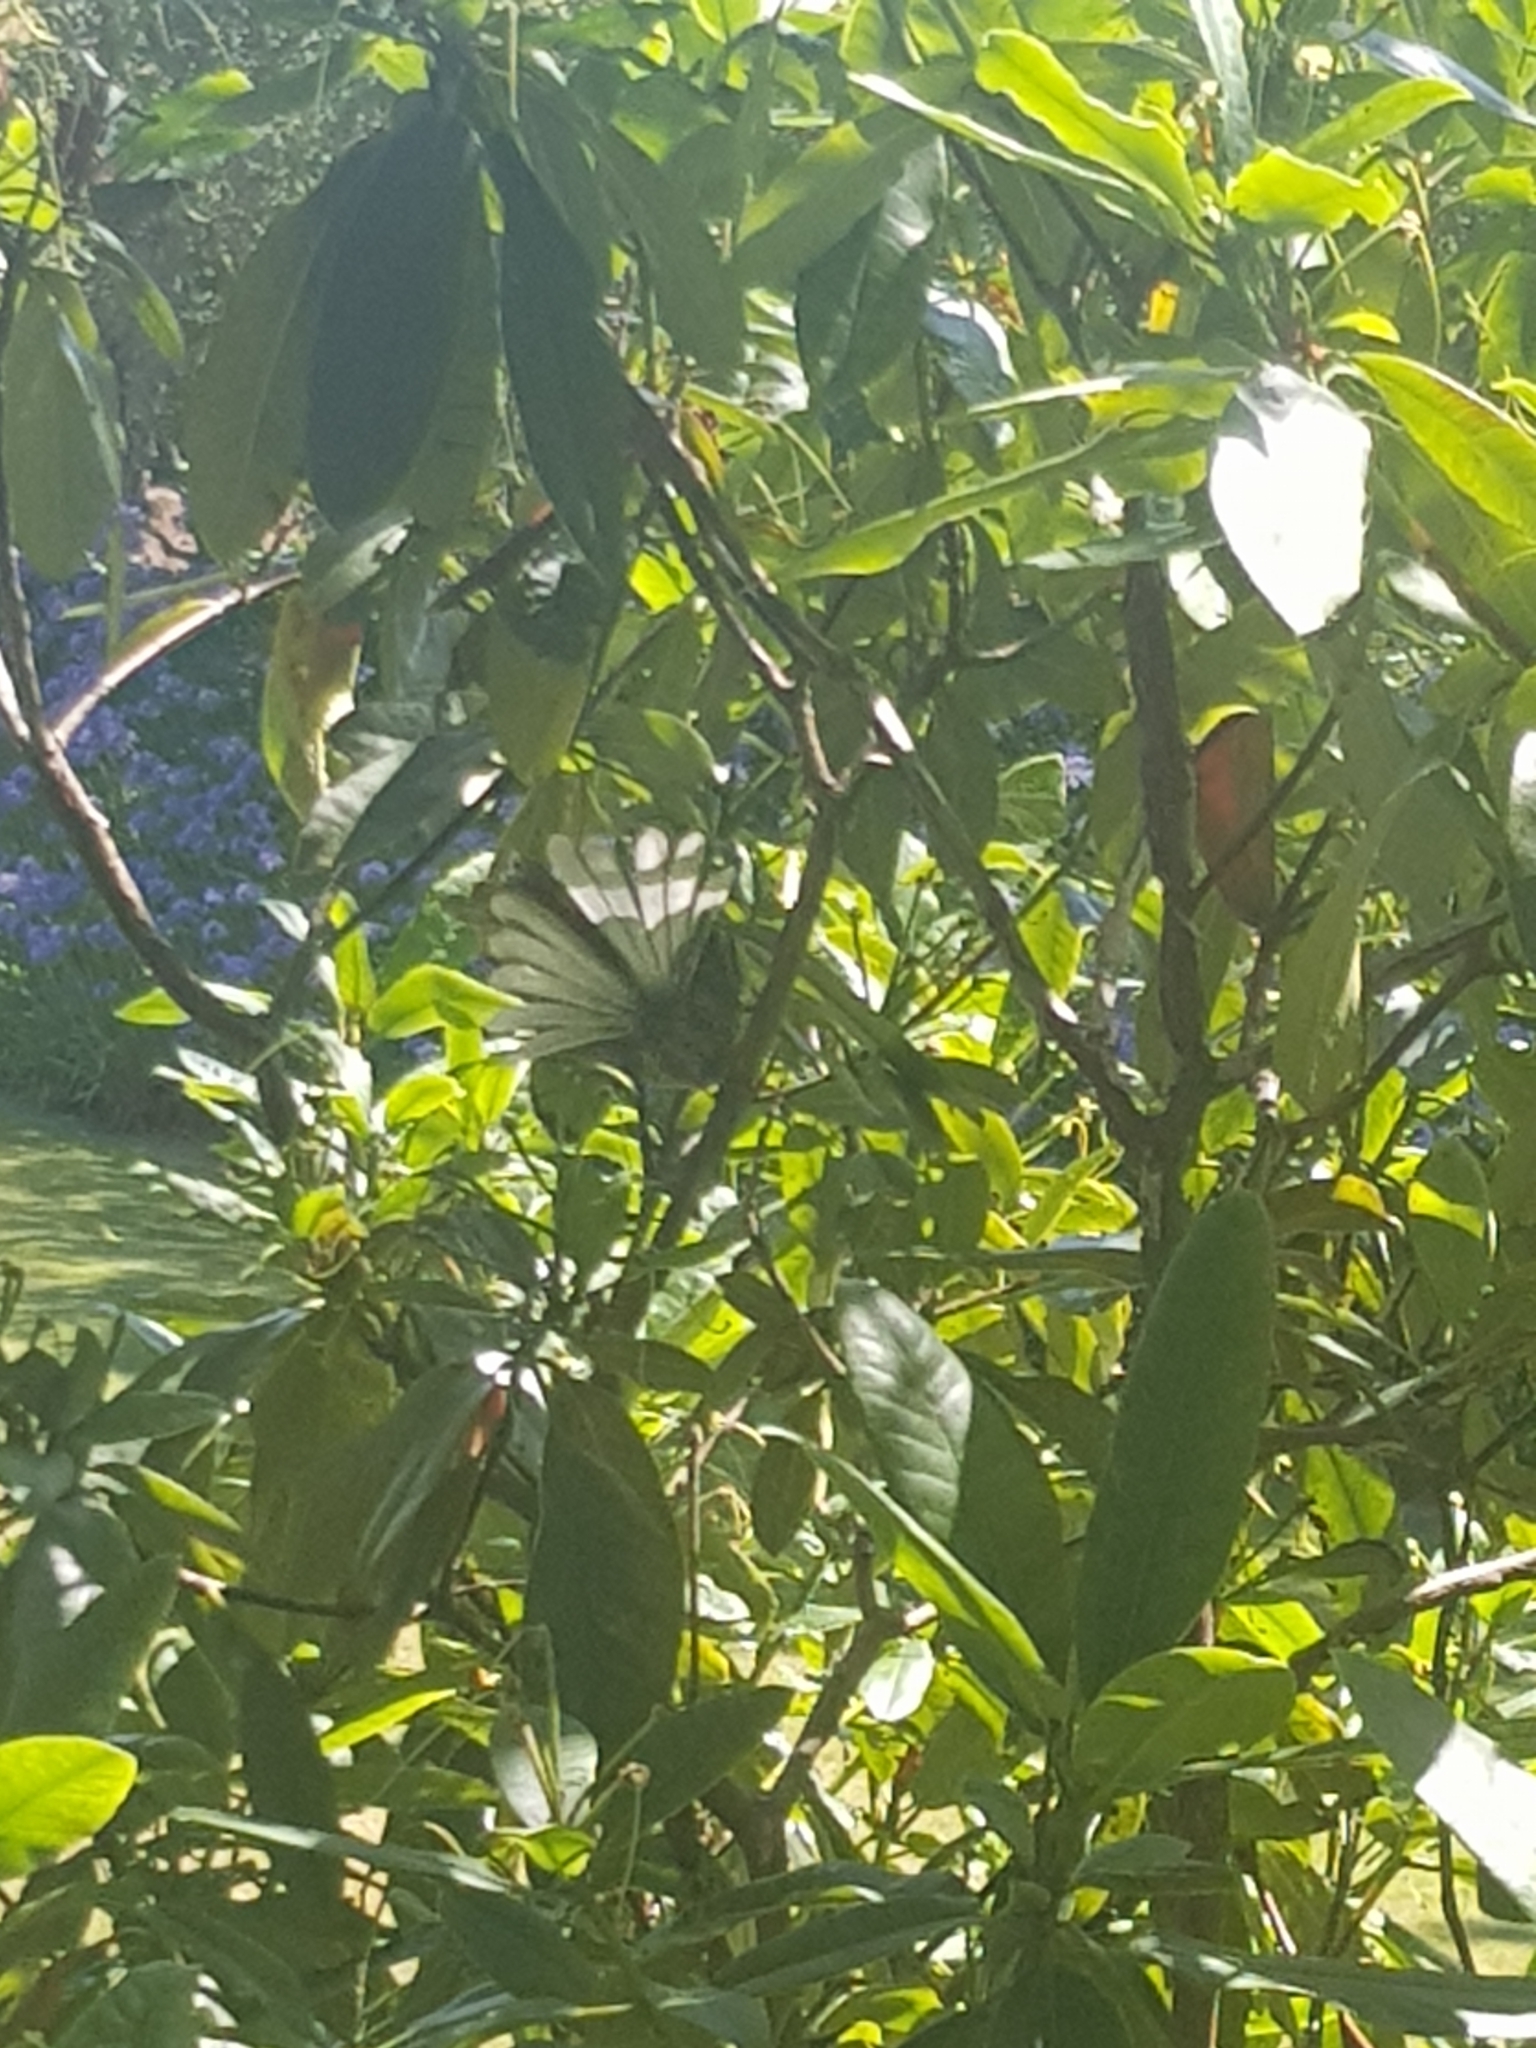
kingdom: Animalia
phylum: Chordata
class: Aves
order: Passeriformes
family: Rhipiduridae
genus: Rhipidura
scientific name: Rhipidura fuliginosa
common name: New zealand fantail
